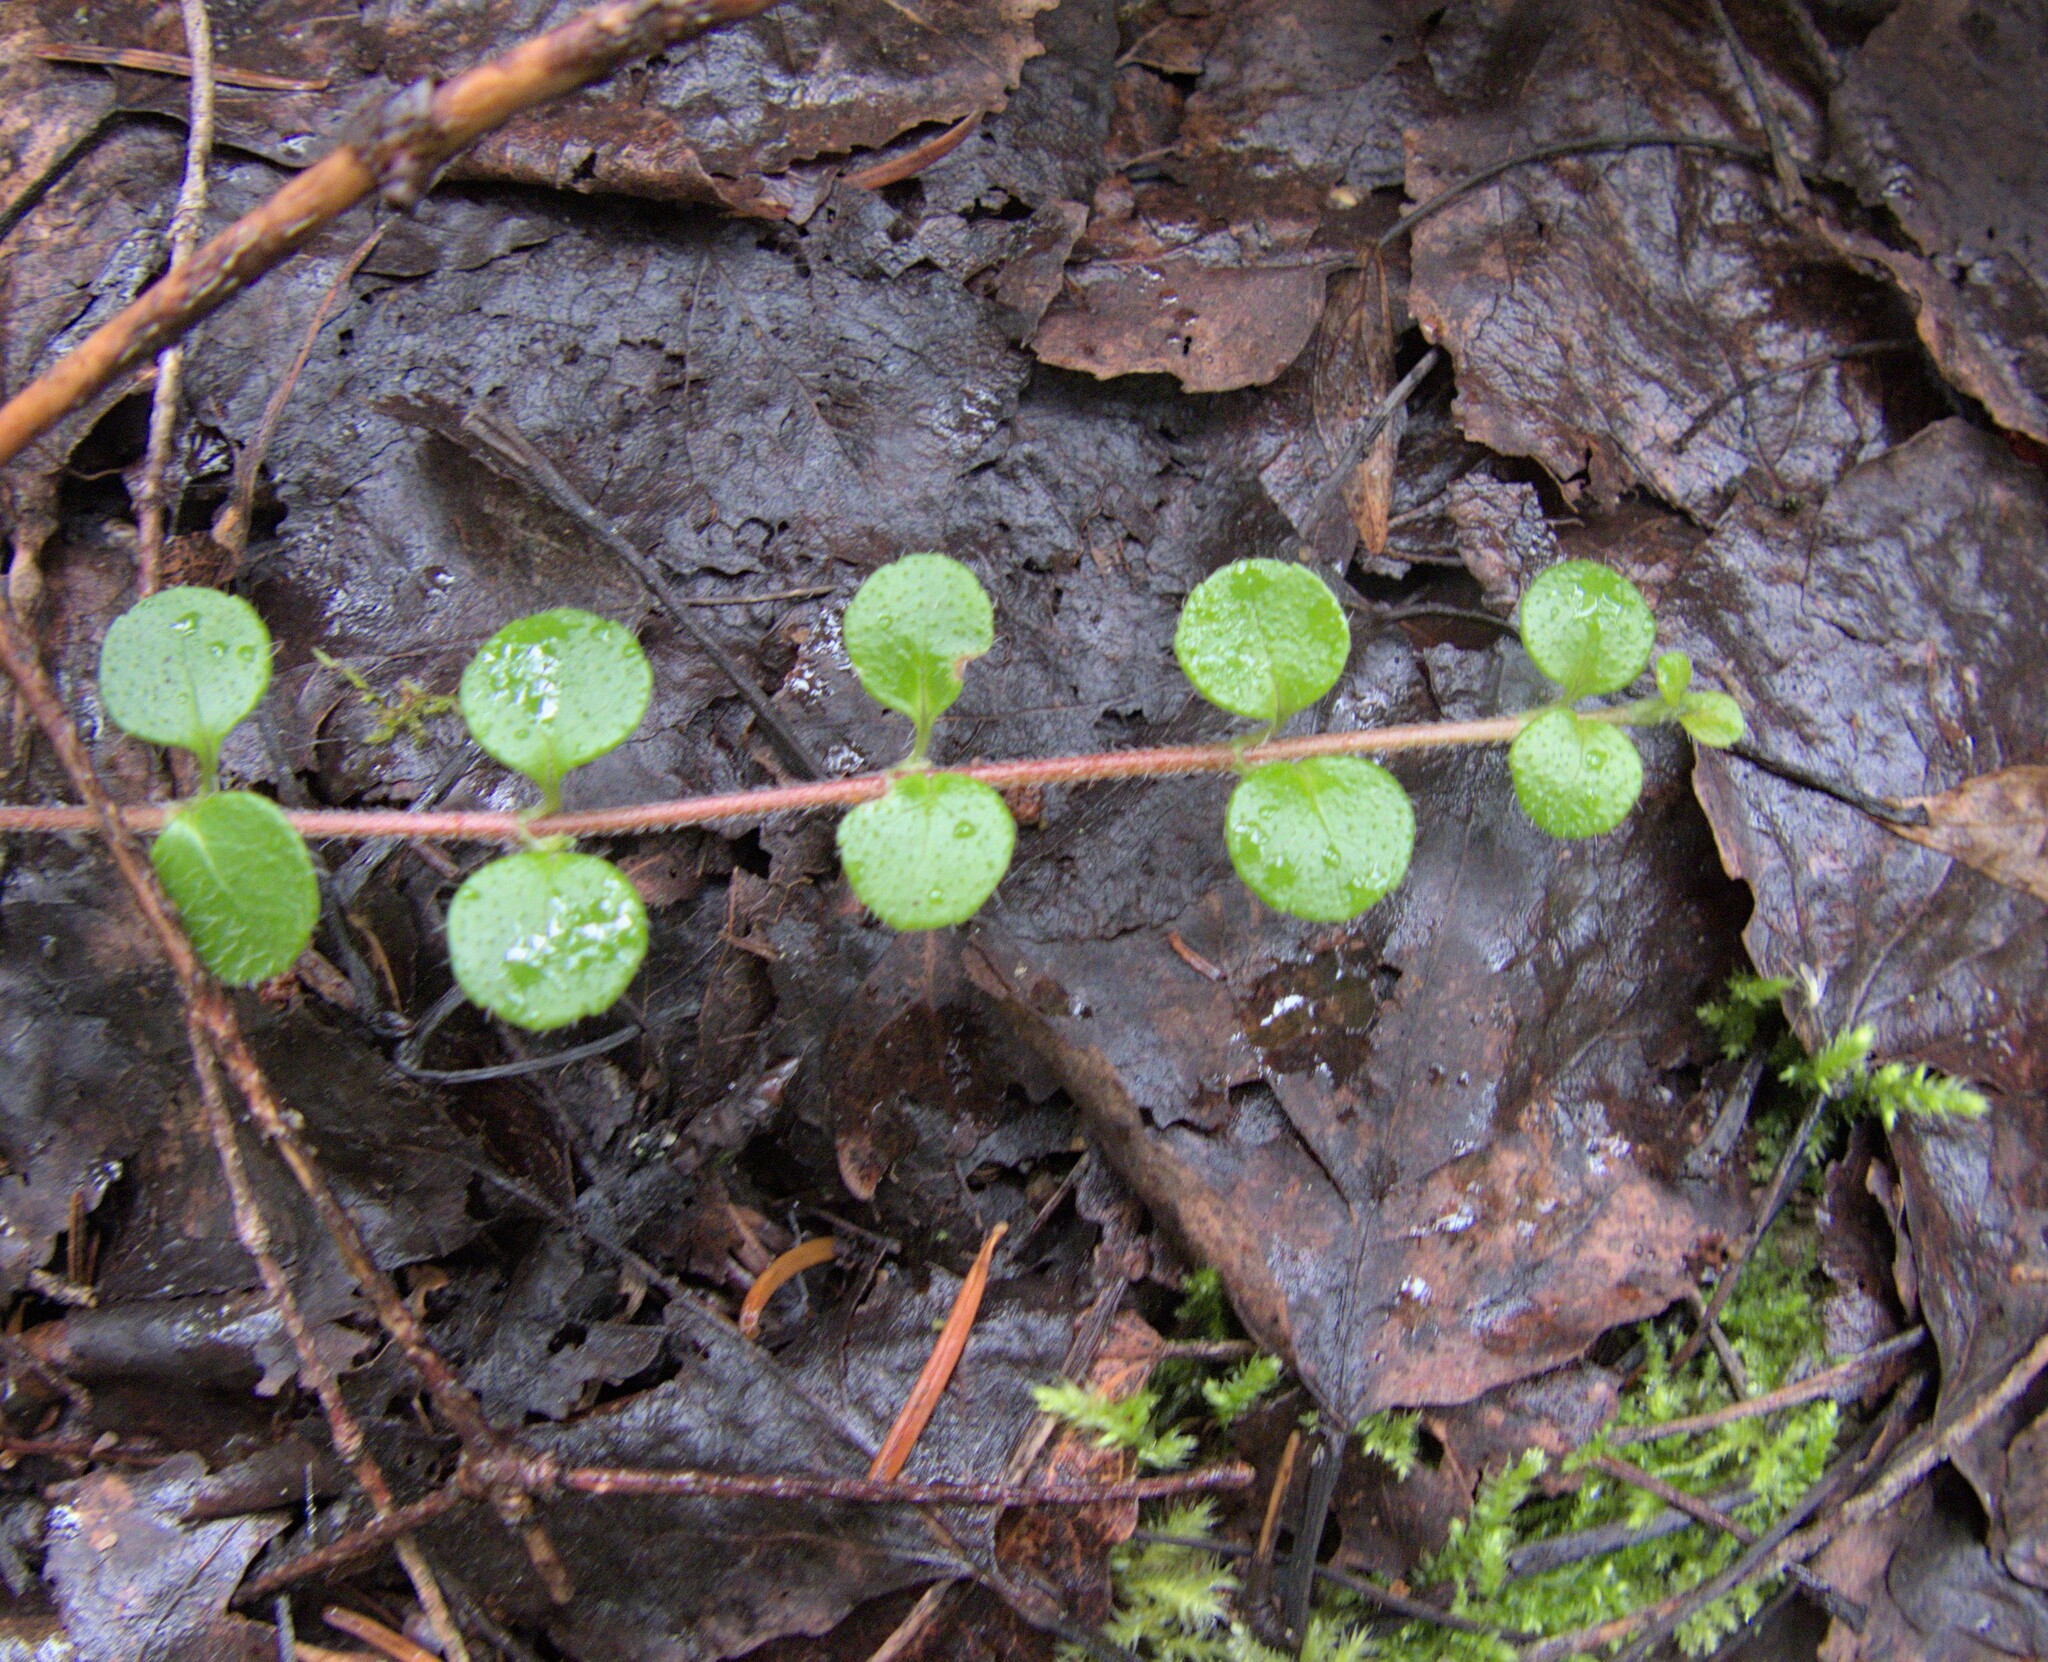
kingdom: Plantae
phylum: Tracheophyta
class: Magnoliopsida
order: Dipsacales
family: Caprifoliaceae
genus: Linnaea
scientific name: Linnaea borealis
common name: Twinflower
